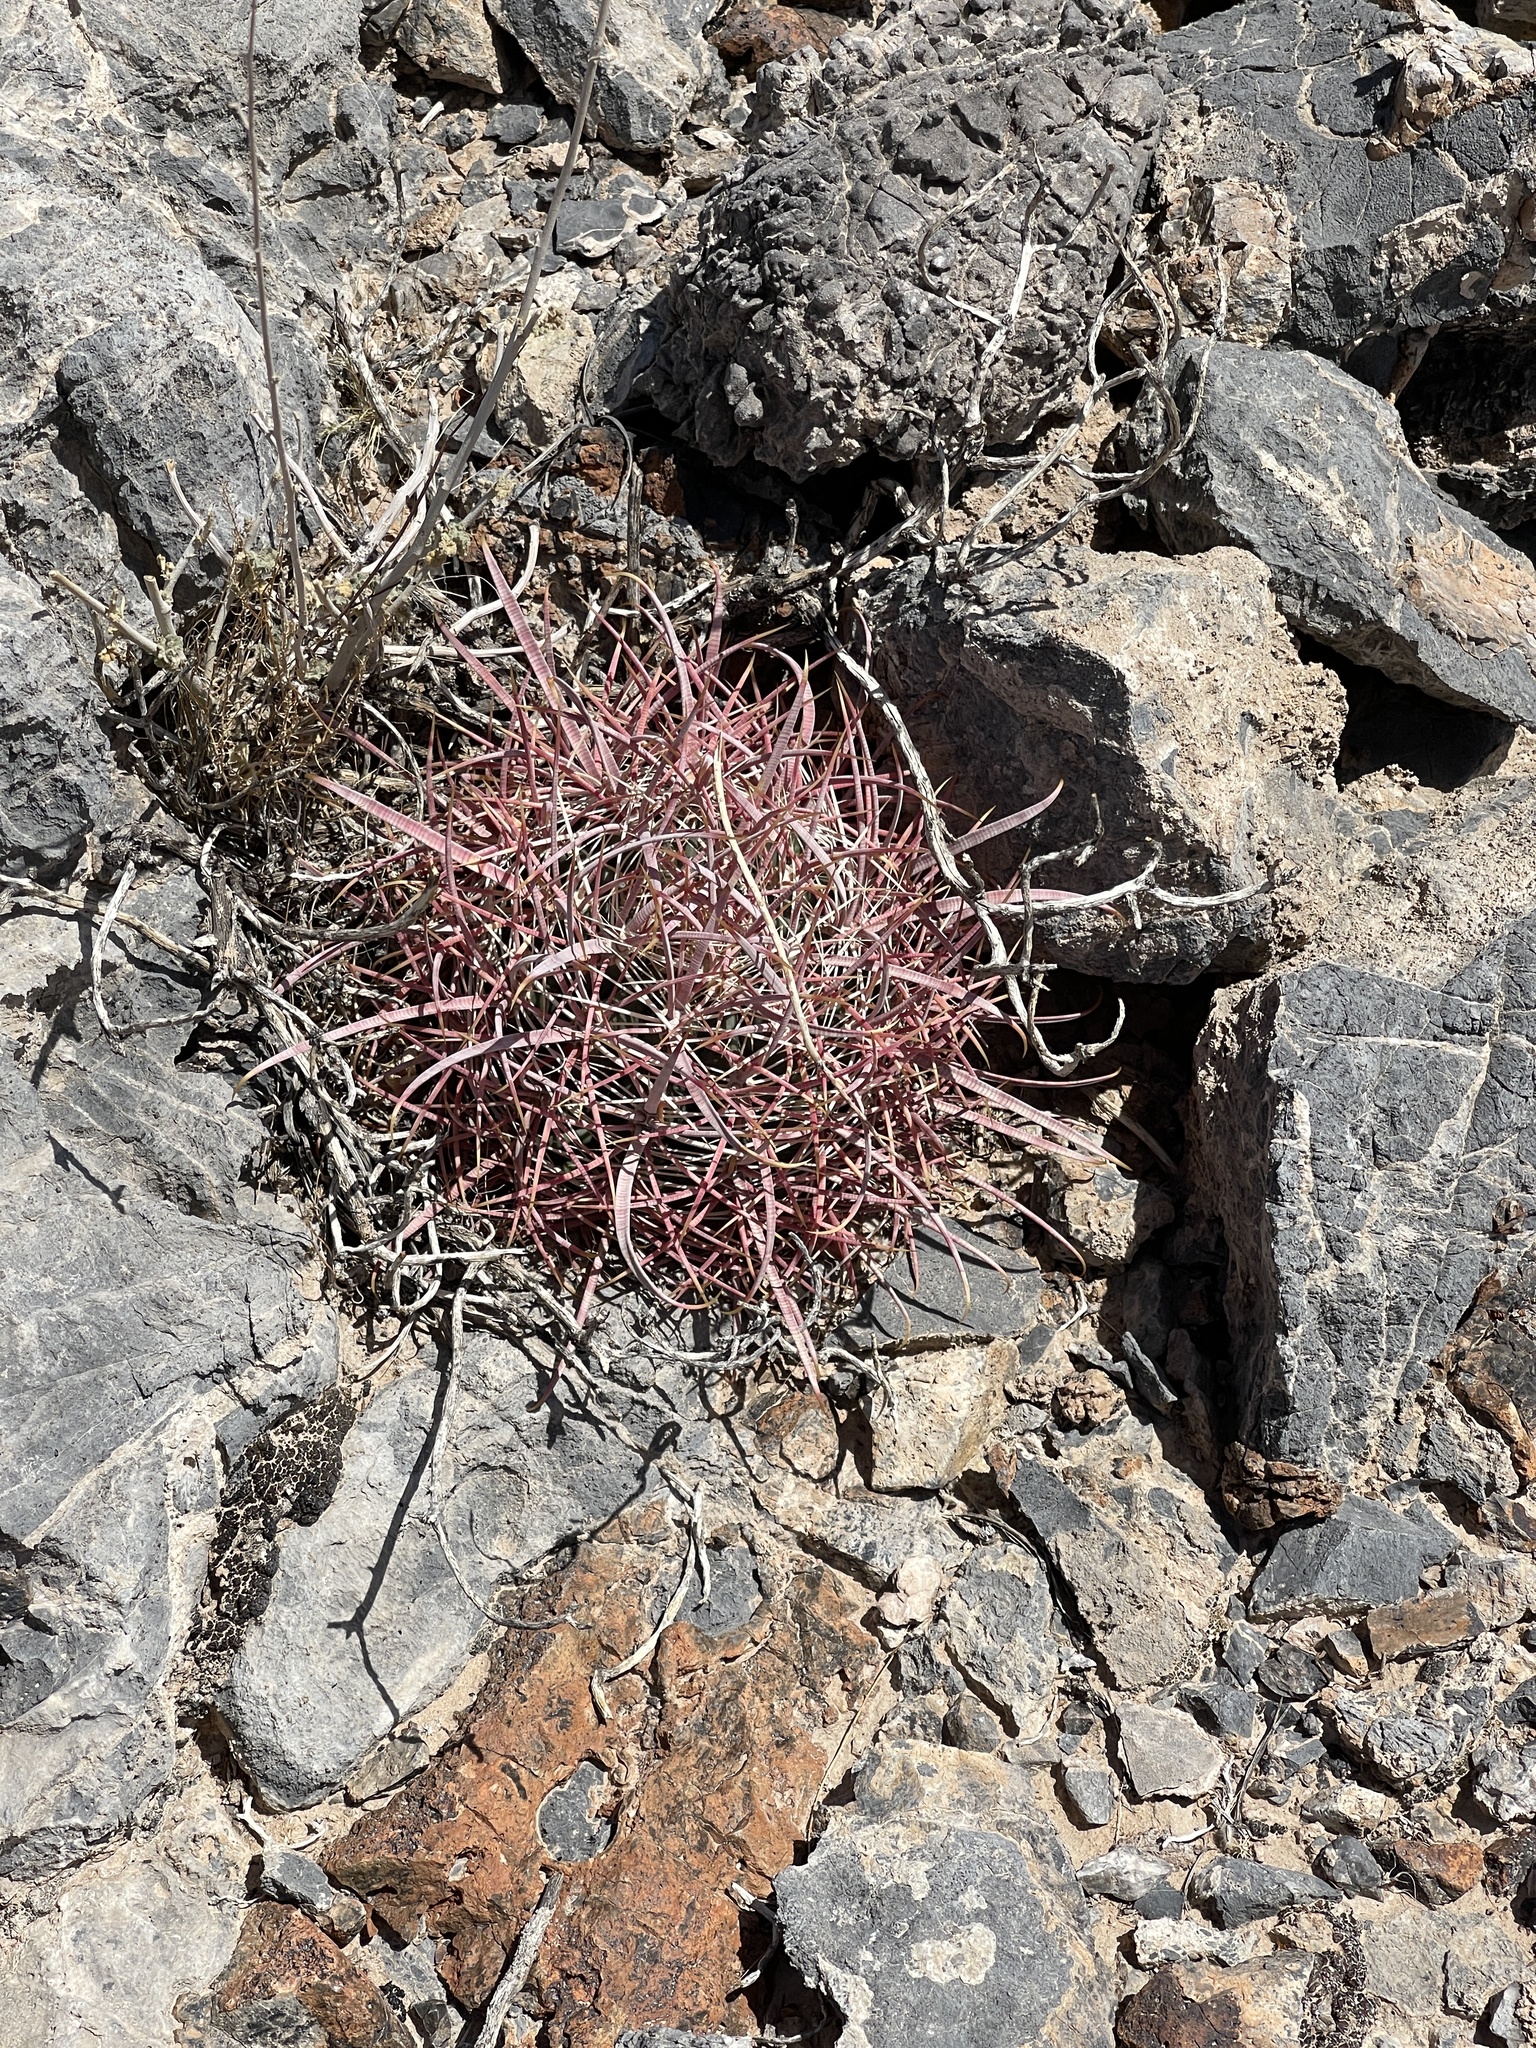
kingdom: Plantae
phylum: Tracheophyta
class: Magnoliopsida
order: Caryophyllales
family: Cactaceae
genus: Ferocactus
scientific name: Ferocactus cylindraceus
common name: California barrel cactus
